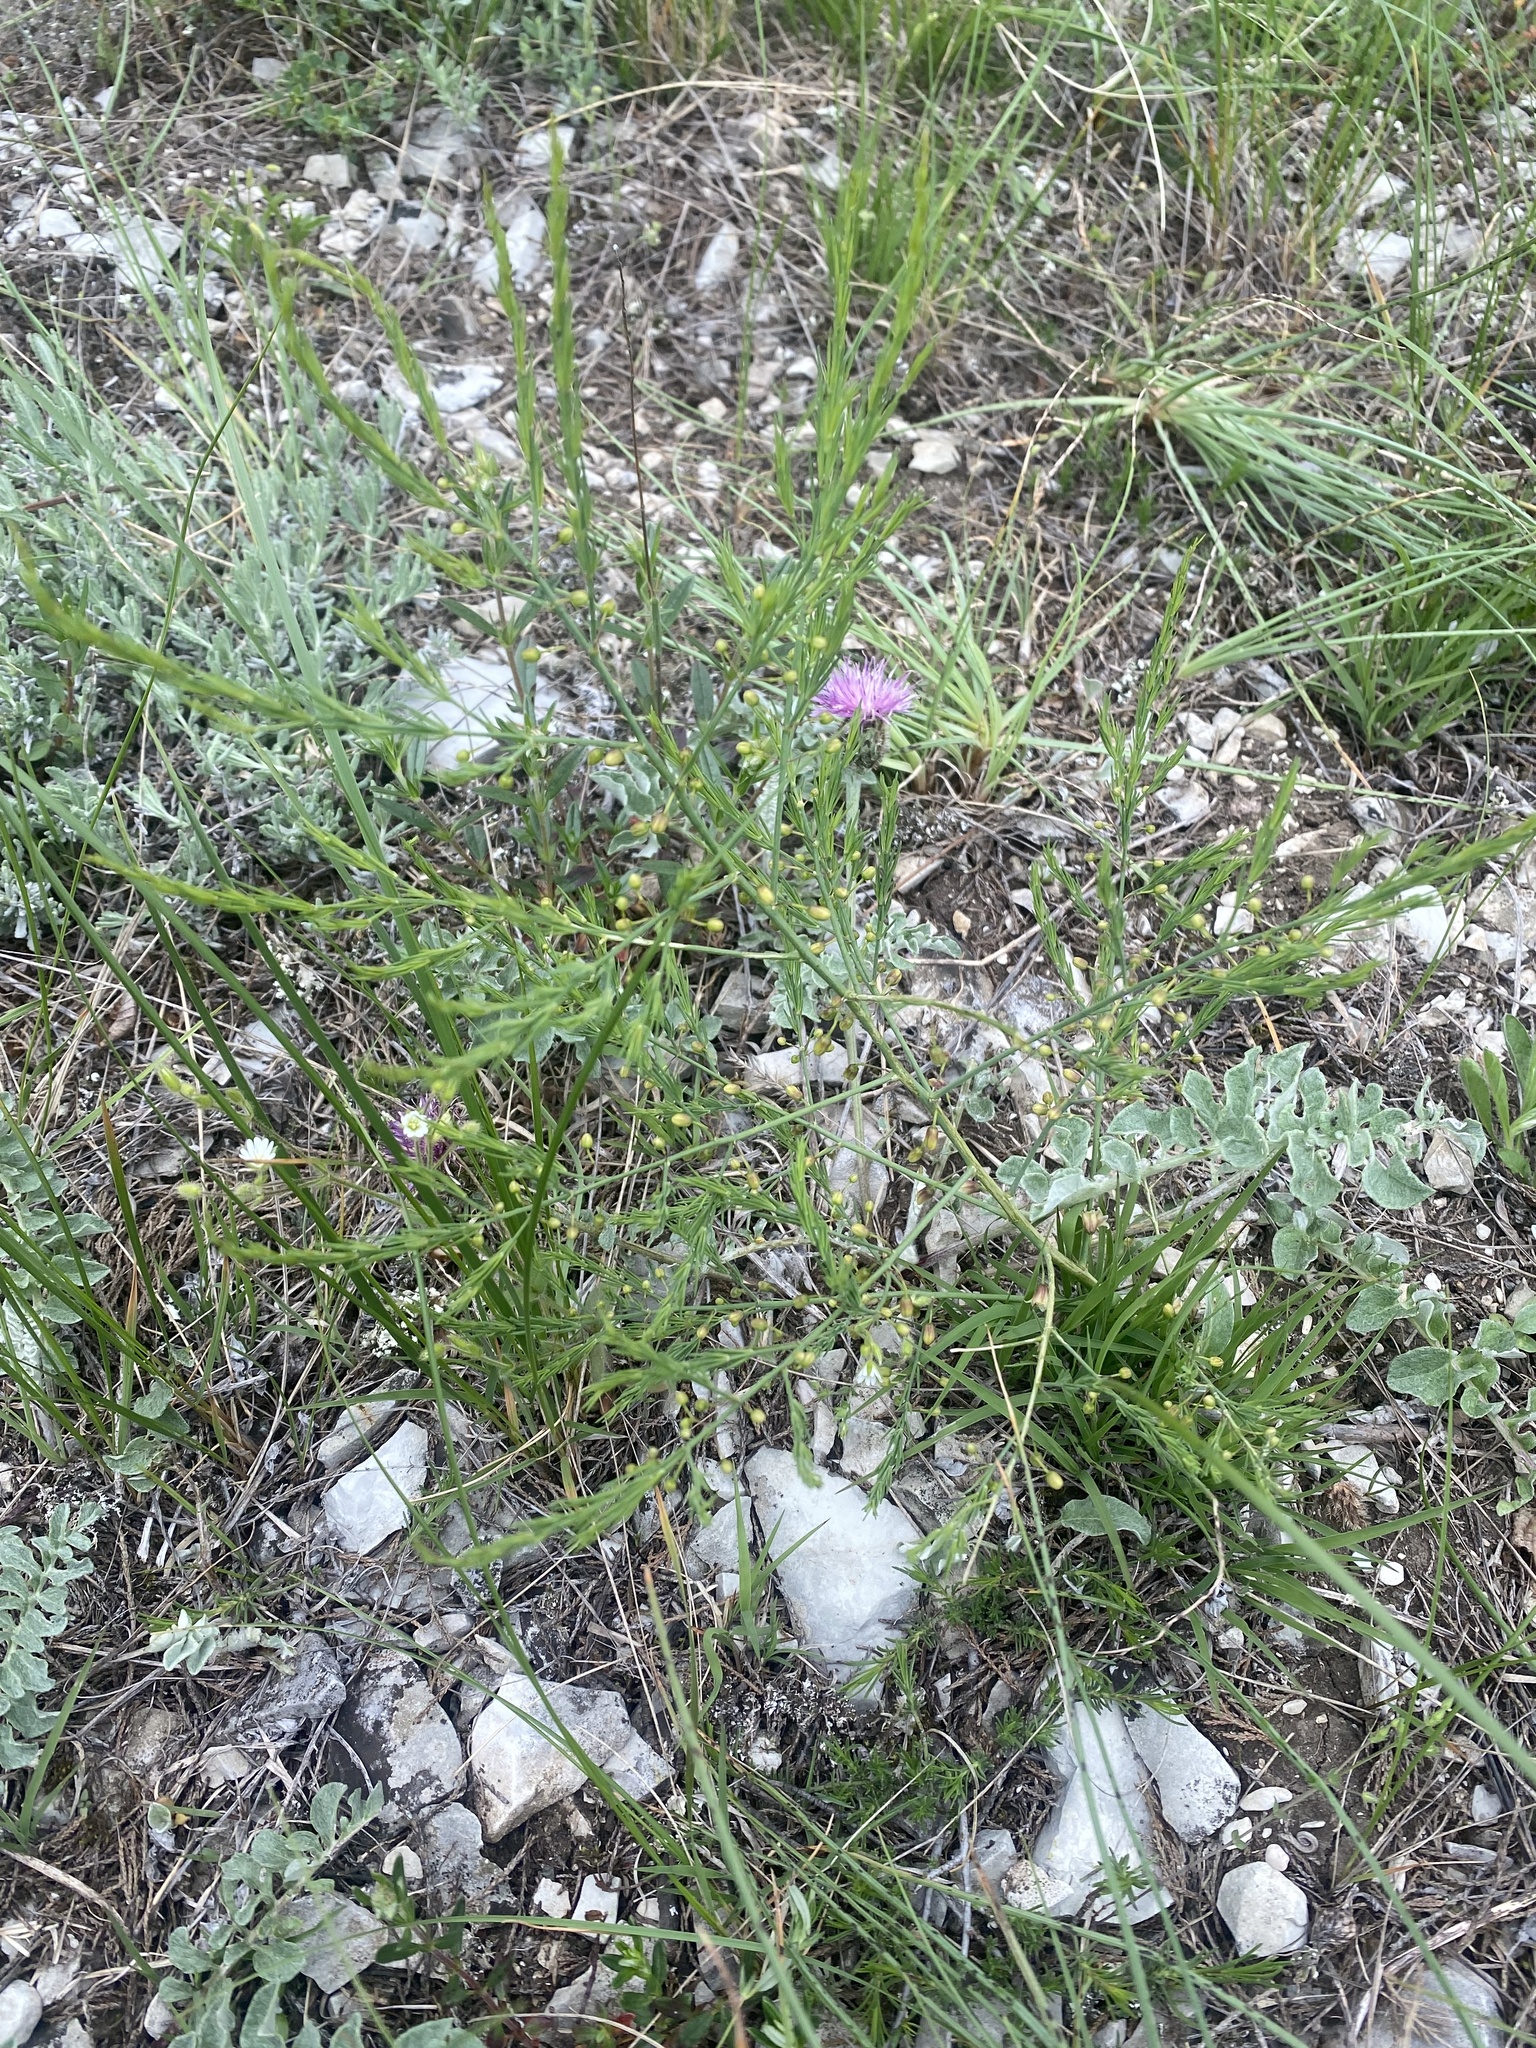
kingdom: Plantae
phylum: Tracheophyta
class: Liliopsida
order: Asparagales
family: Asparagaceae
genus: Asparagus
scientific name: Asparagus officinalis
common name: Garden asparagus
